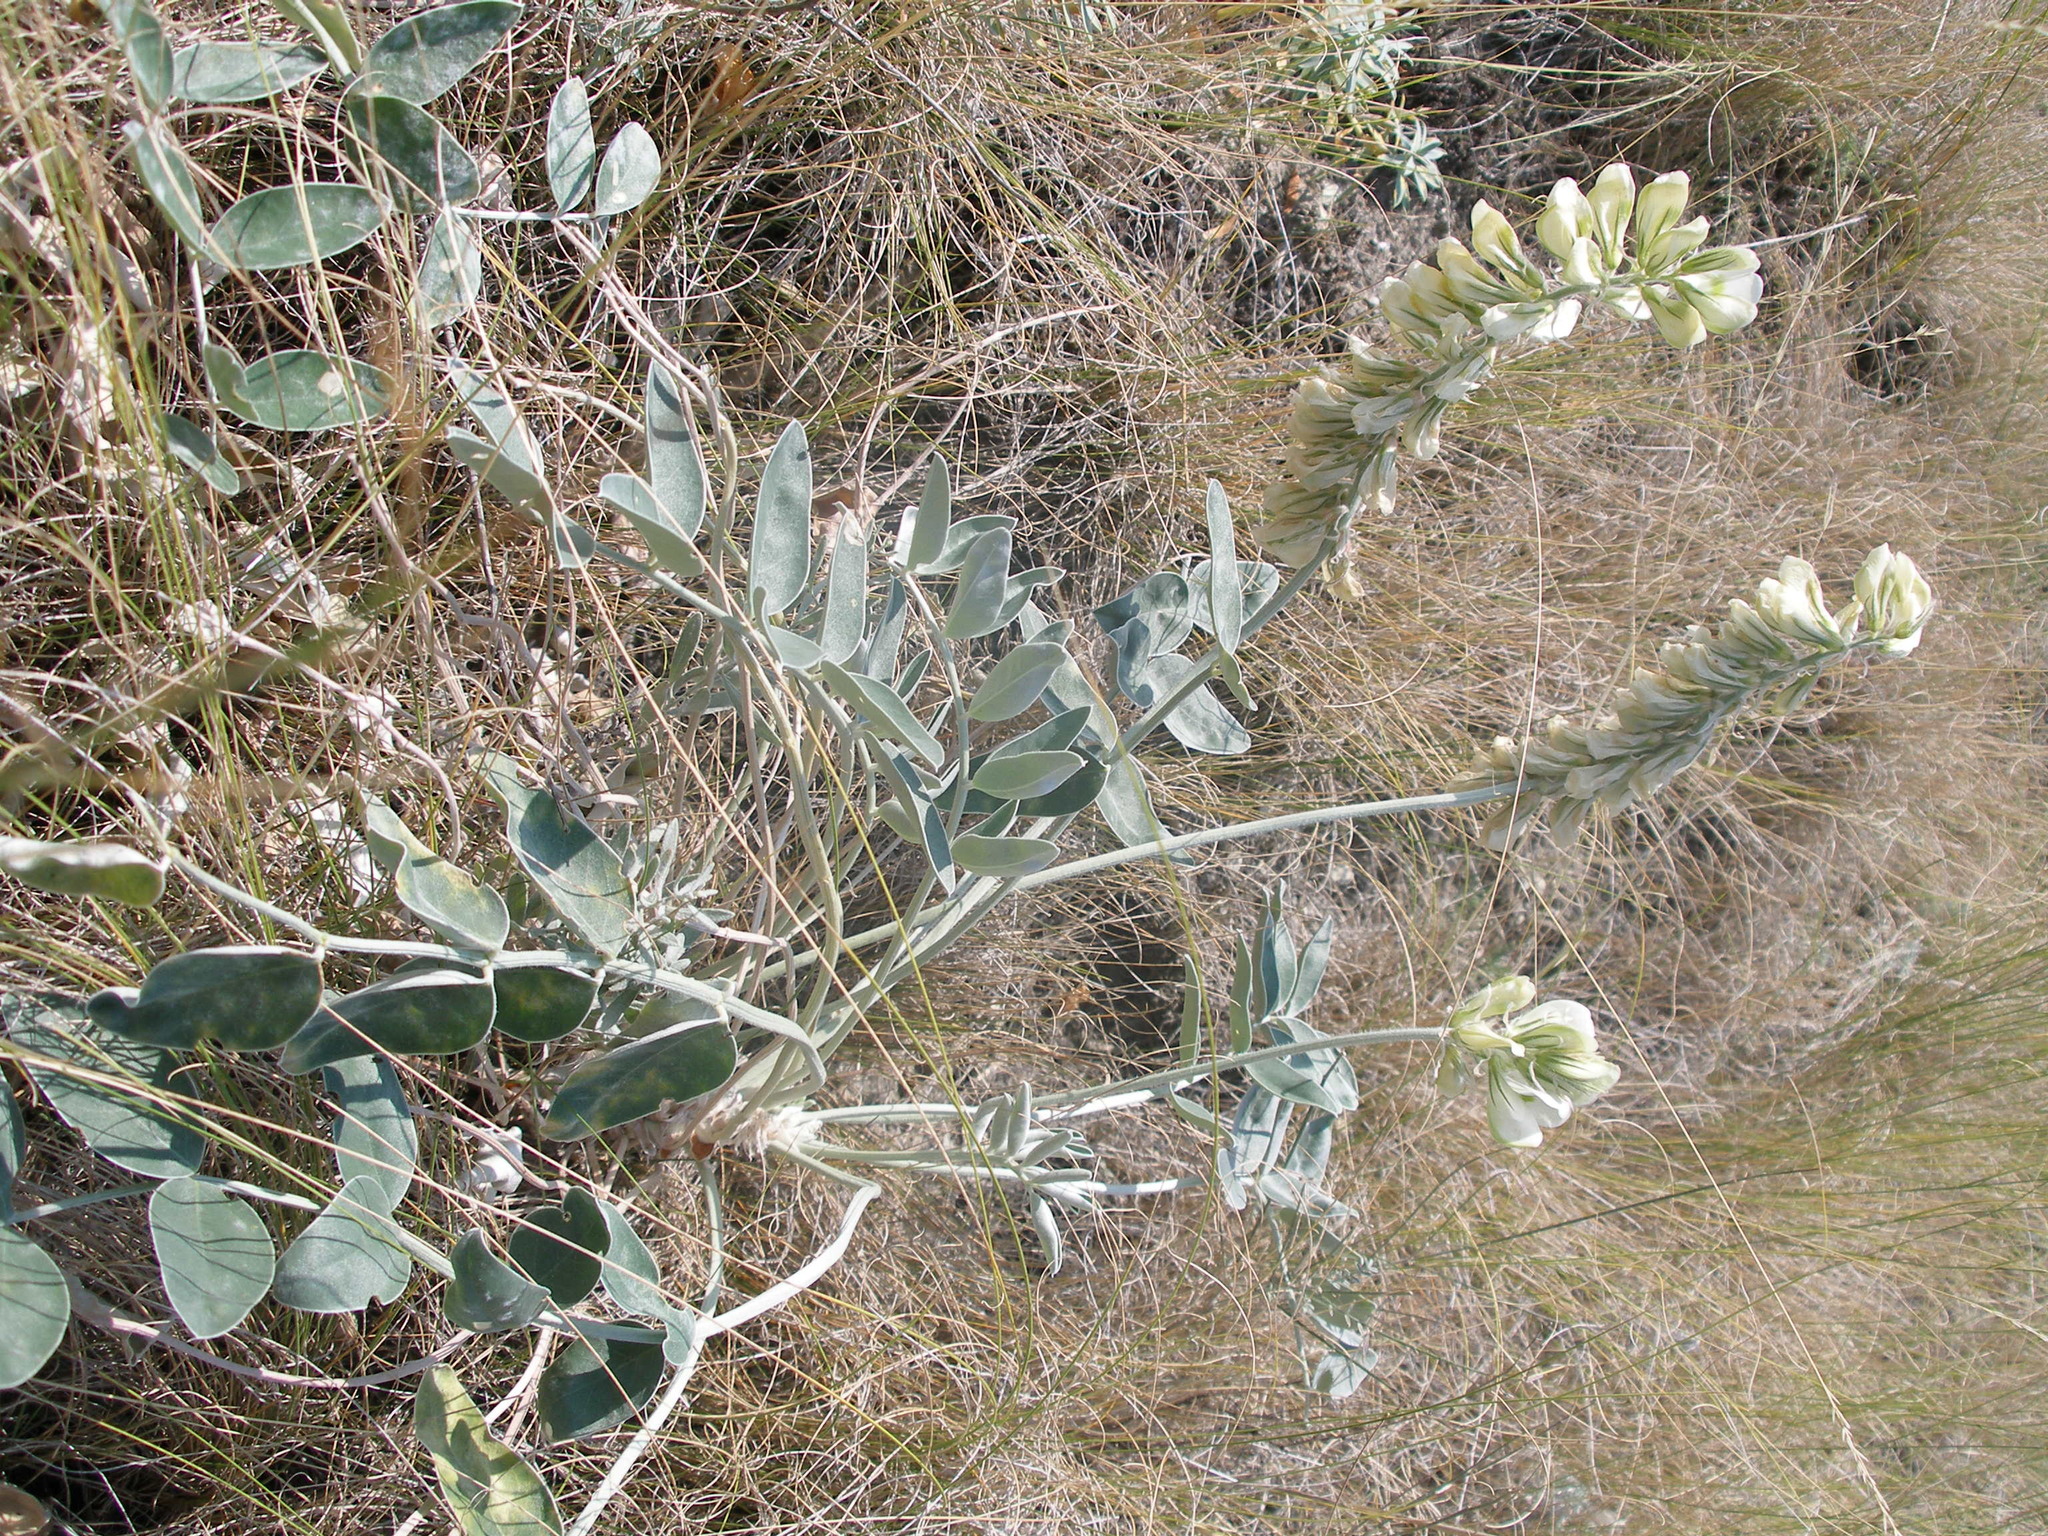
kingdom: Plantae
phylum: Tracheophyta
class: Magnoliopsida
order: Fabales
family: Fabaceae
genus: Hedysarum
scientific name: Hedysarum grandiflorum
